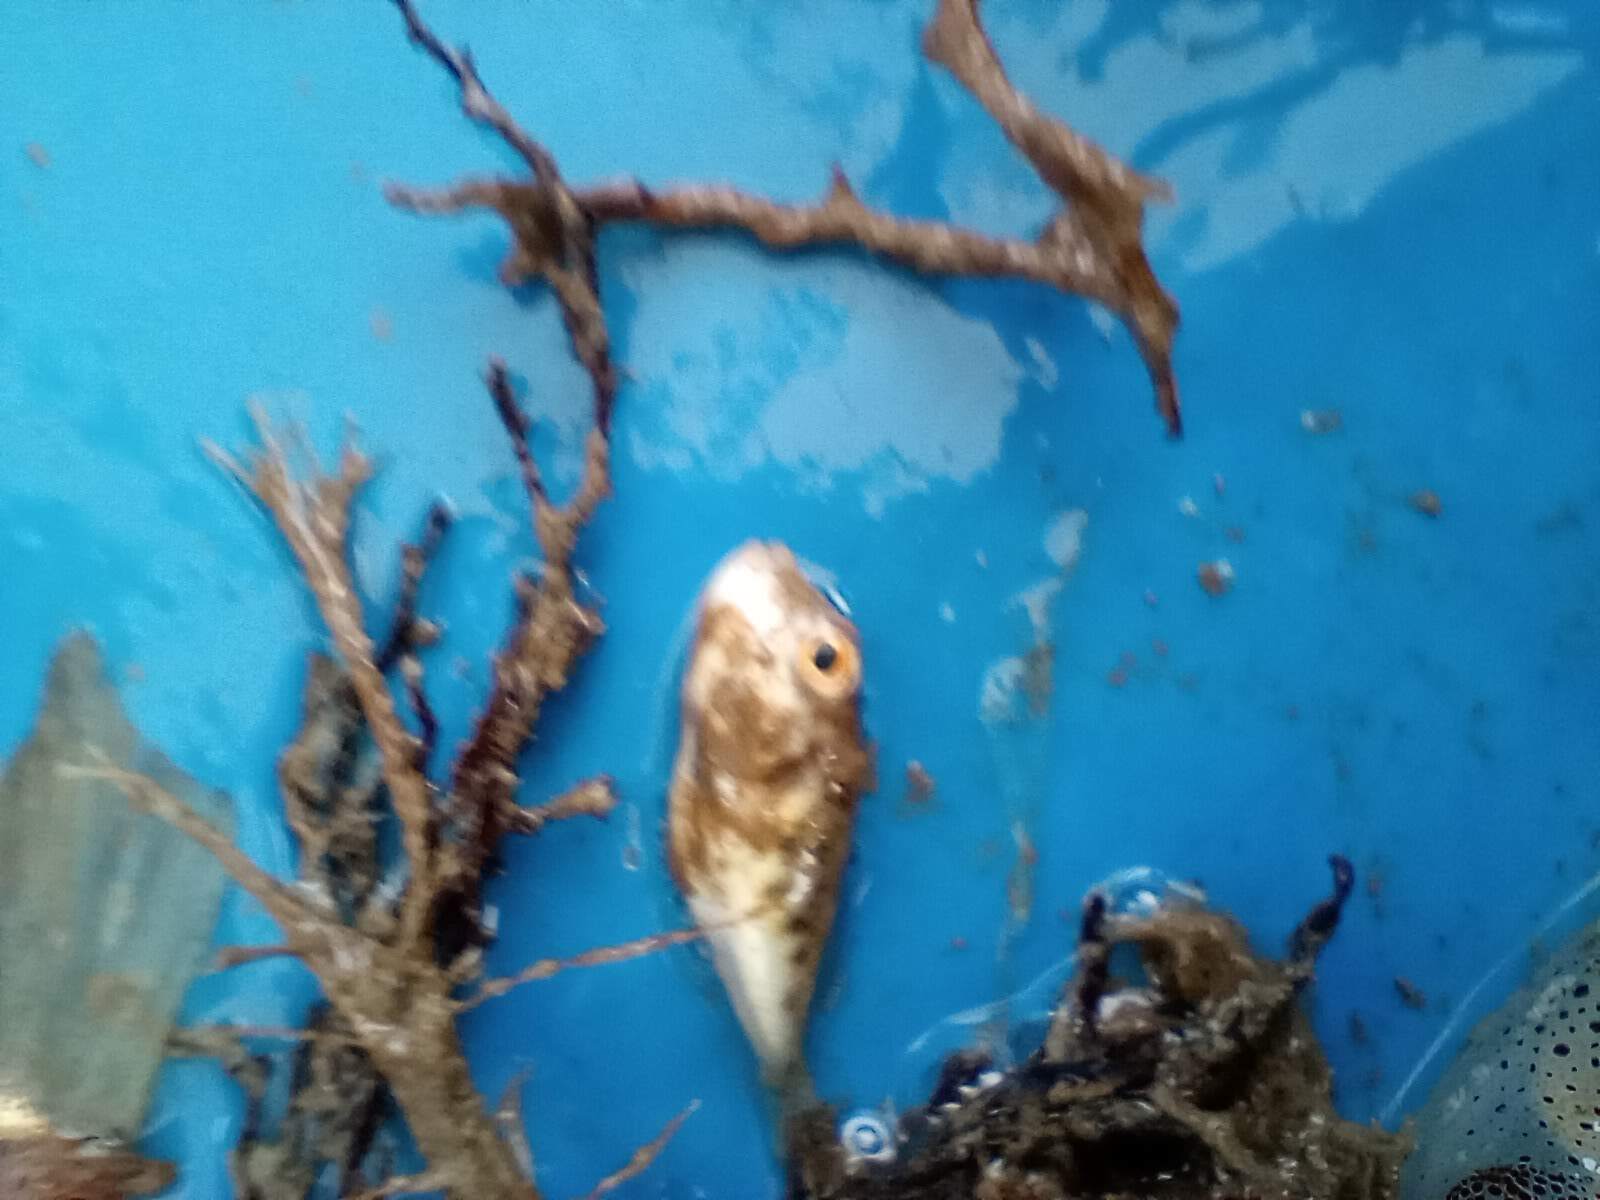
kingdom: Animalia
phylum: Chordata
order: Tetraodontiformes
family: Tetraodontidae
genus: Sphoeroides
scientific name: Sphoeroides parvus
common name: Least puffer
